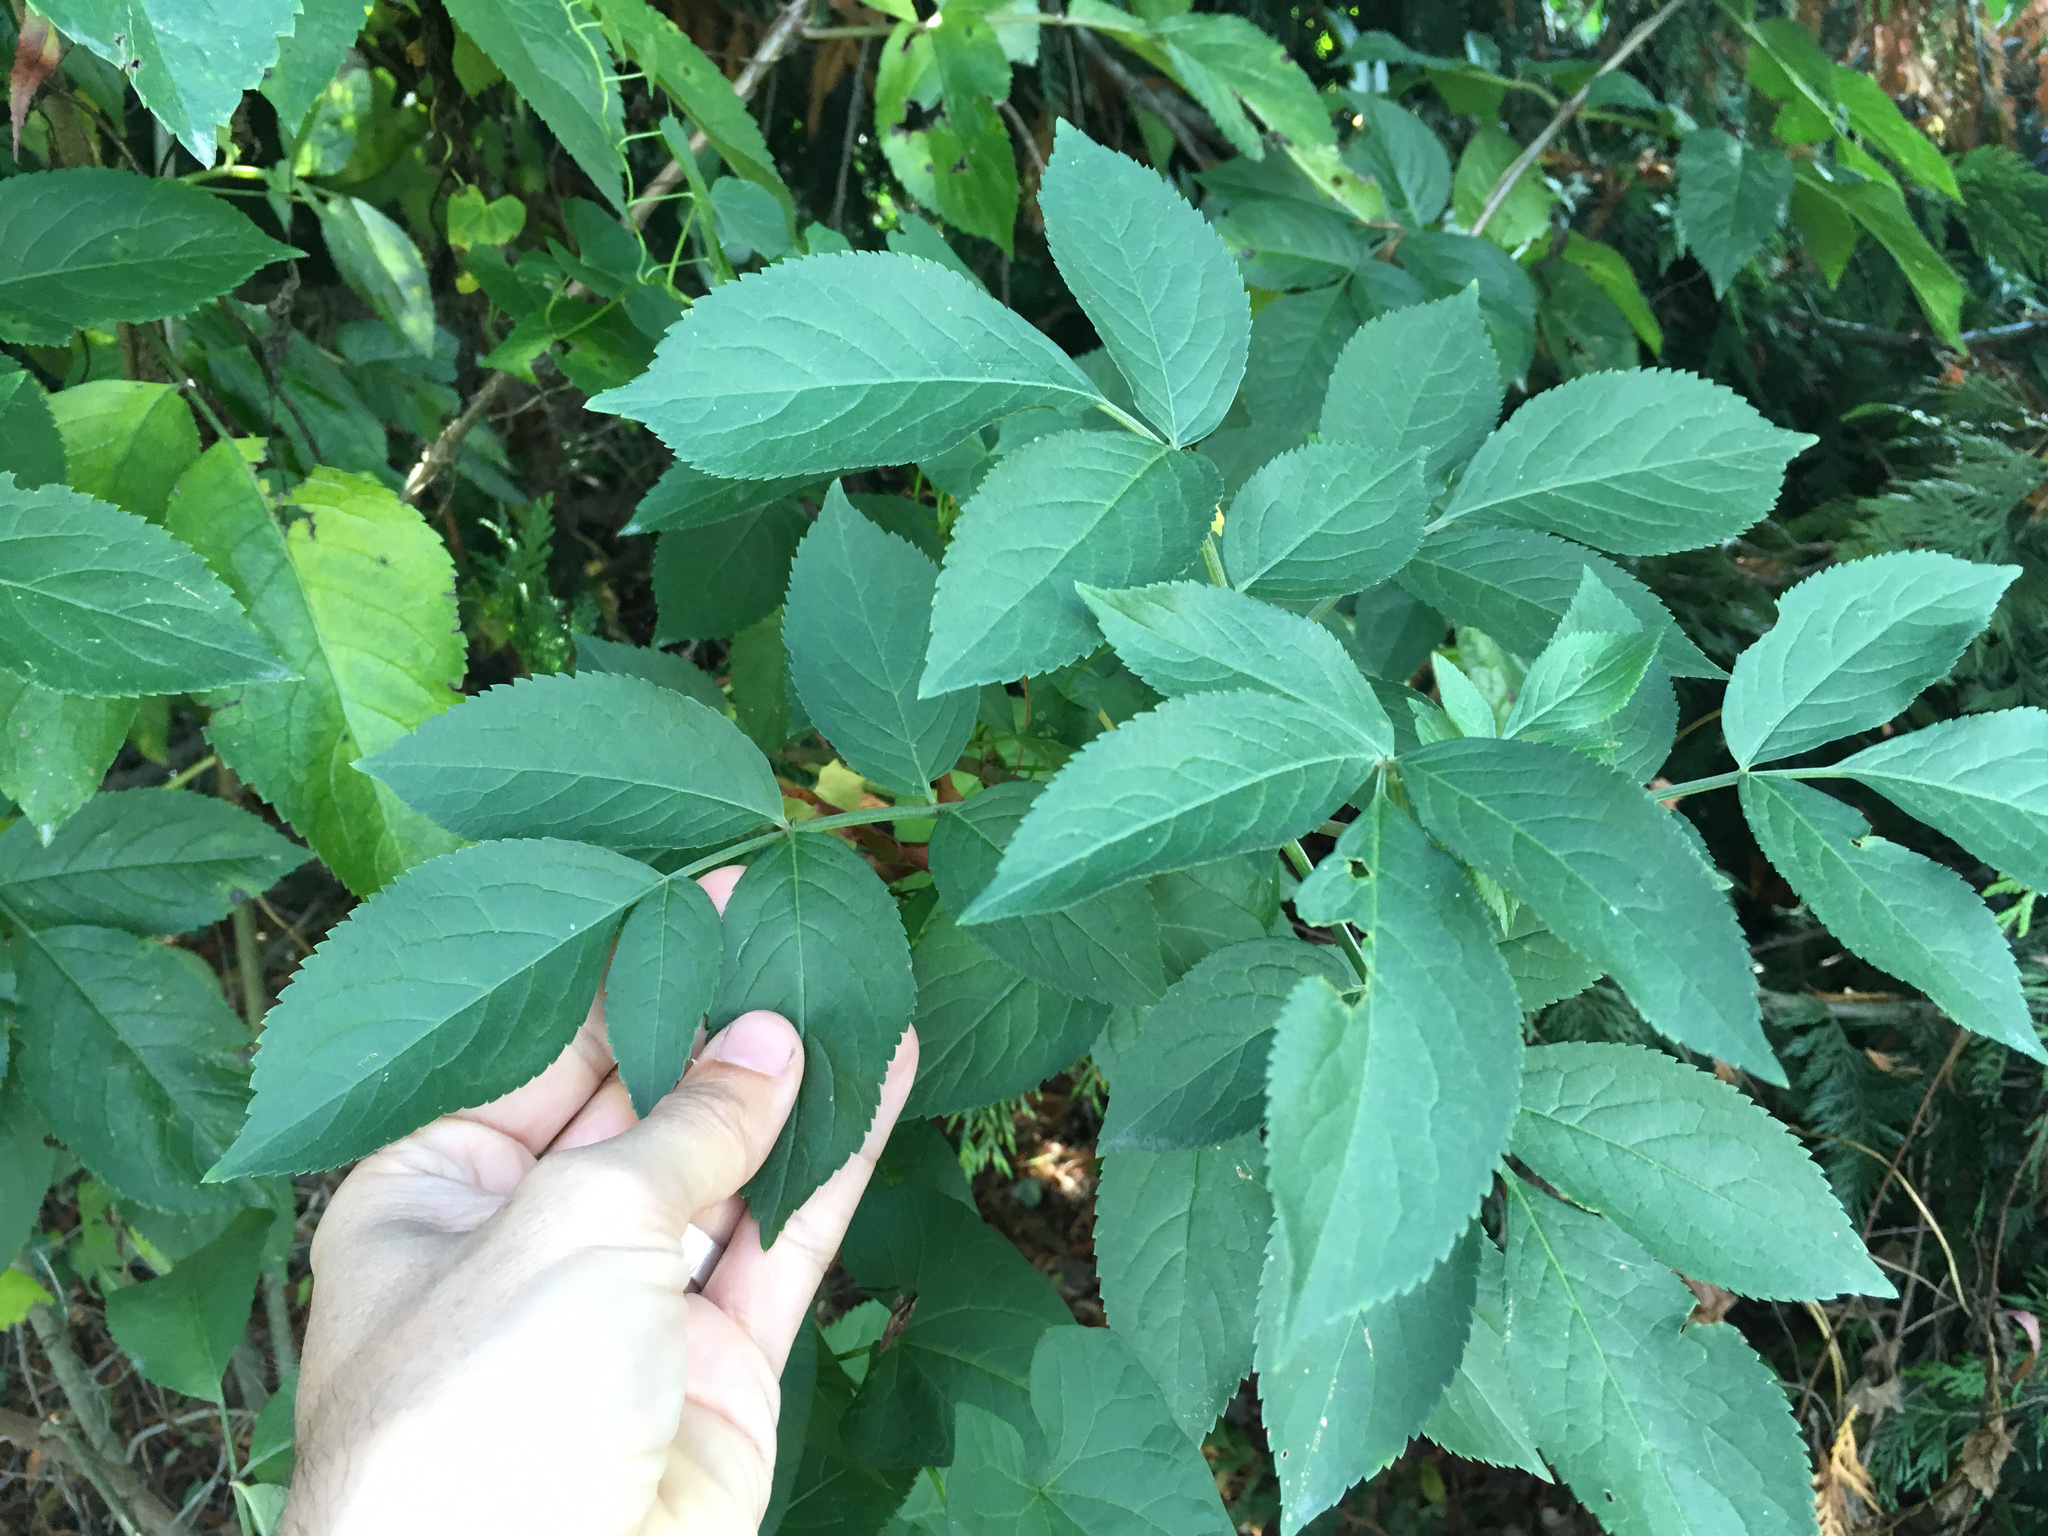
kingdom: Plantae
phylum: Tracheophyta
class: Magnoliopsida
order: Dipsacales
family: Viburnaceae
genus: Sambucus
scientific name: Sambucus nigra
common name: Elder
